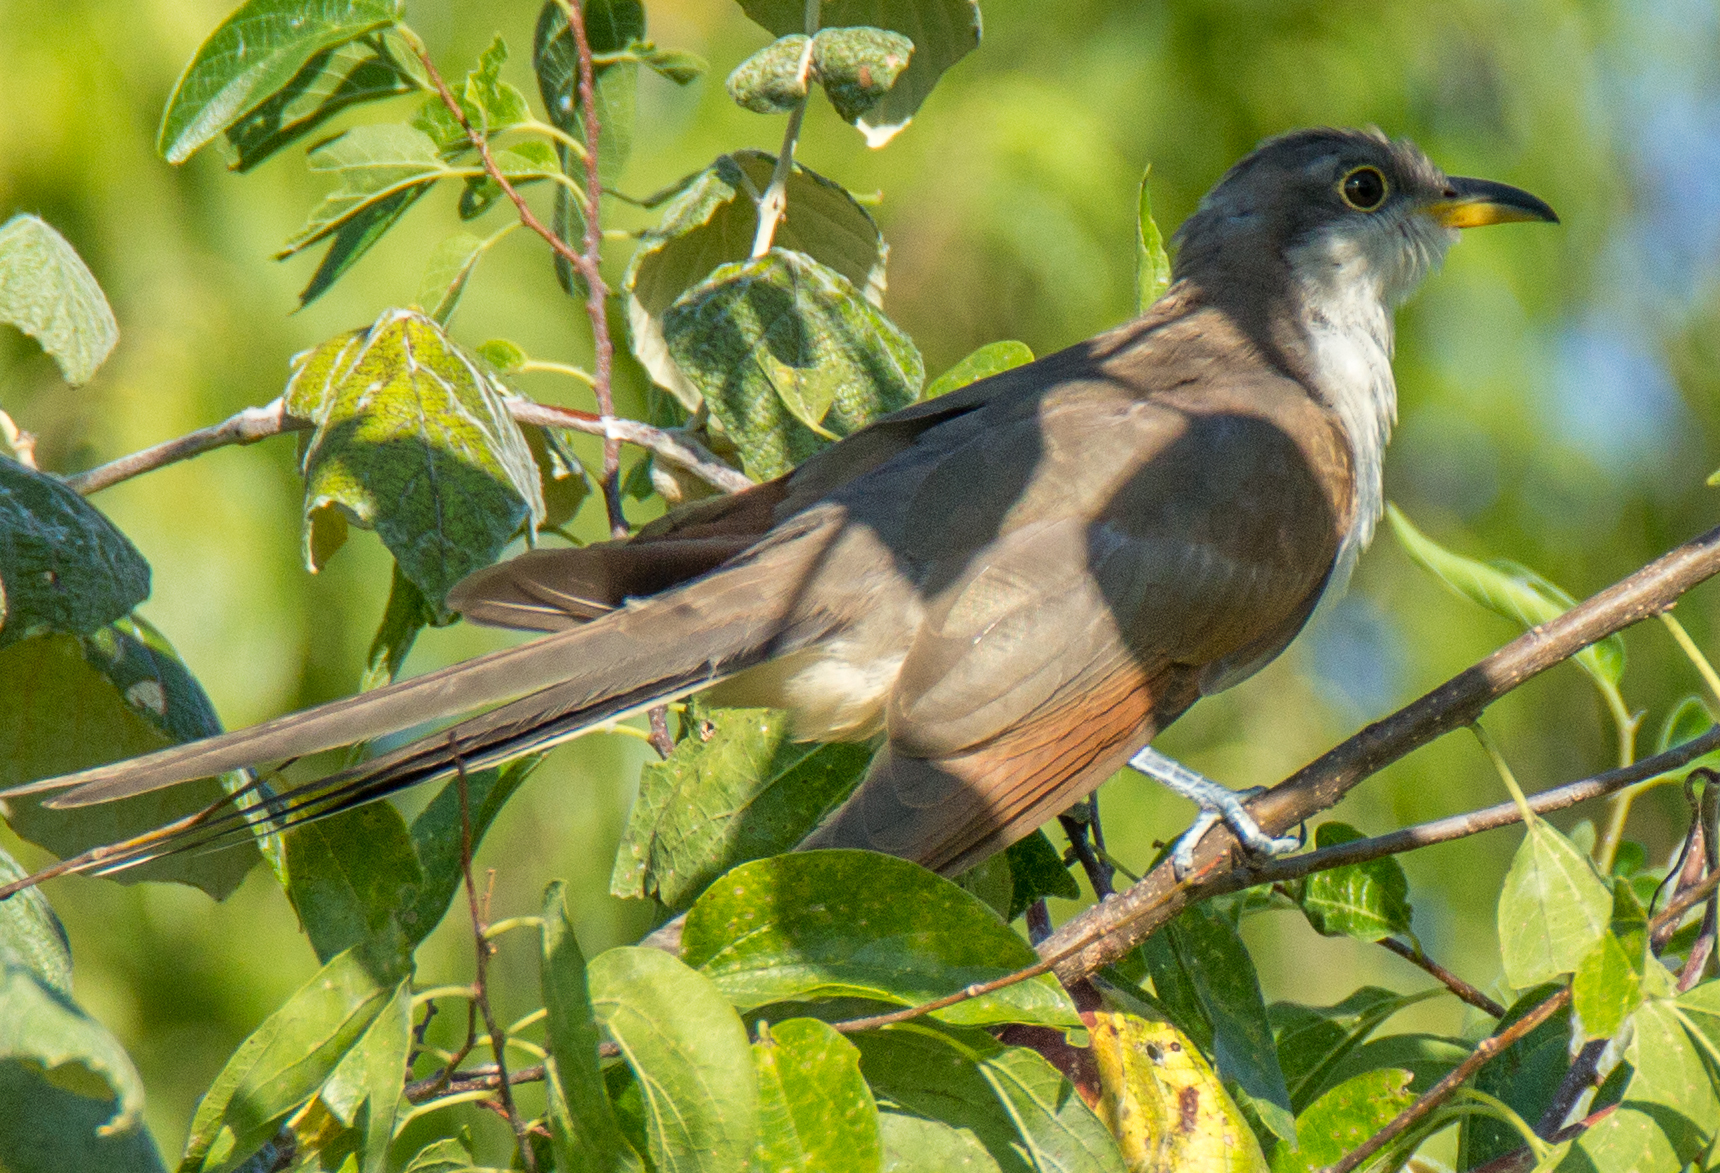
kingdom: Animalia
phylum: Chordata
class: Aves
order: Cuculiformes
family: Cuculidae
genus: Coccyzus
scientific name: Coccyzus americanus
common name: Yellow-billed cuckoo
